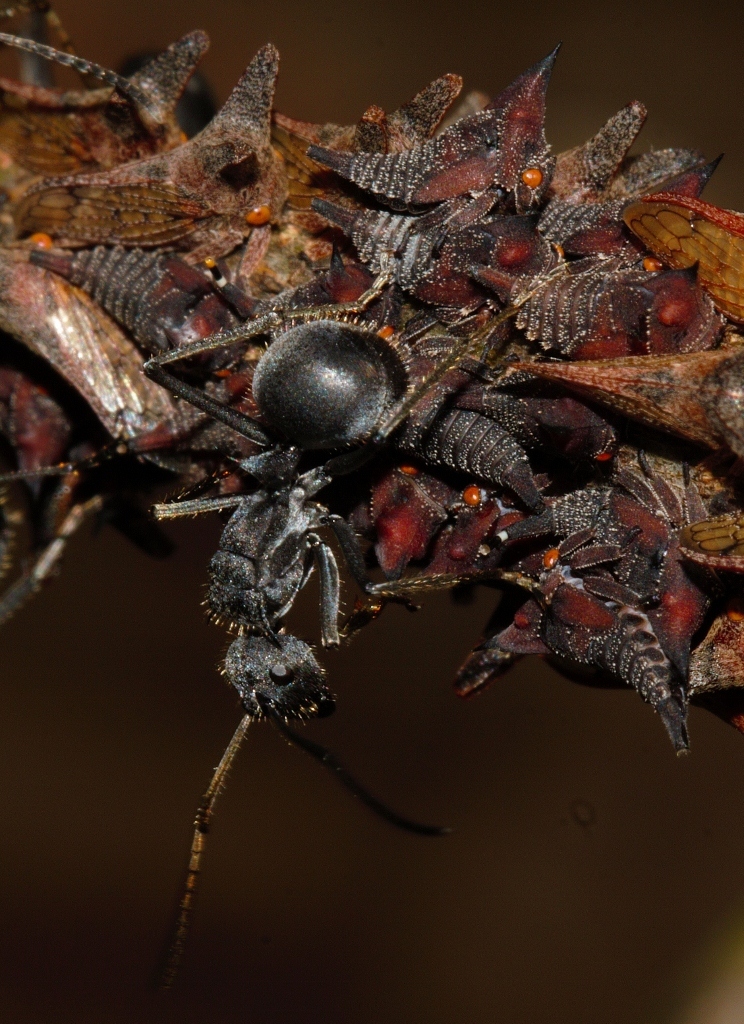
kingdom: Animalia
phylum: Arthropoda
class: Insecta
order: Hymenoptera
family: Formicidae
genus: Polyrhachis
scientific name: Polyrhachis schistacea
